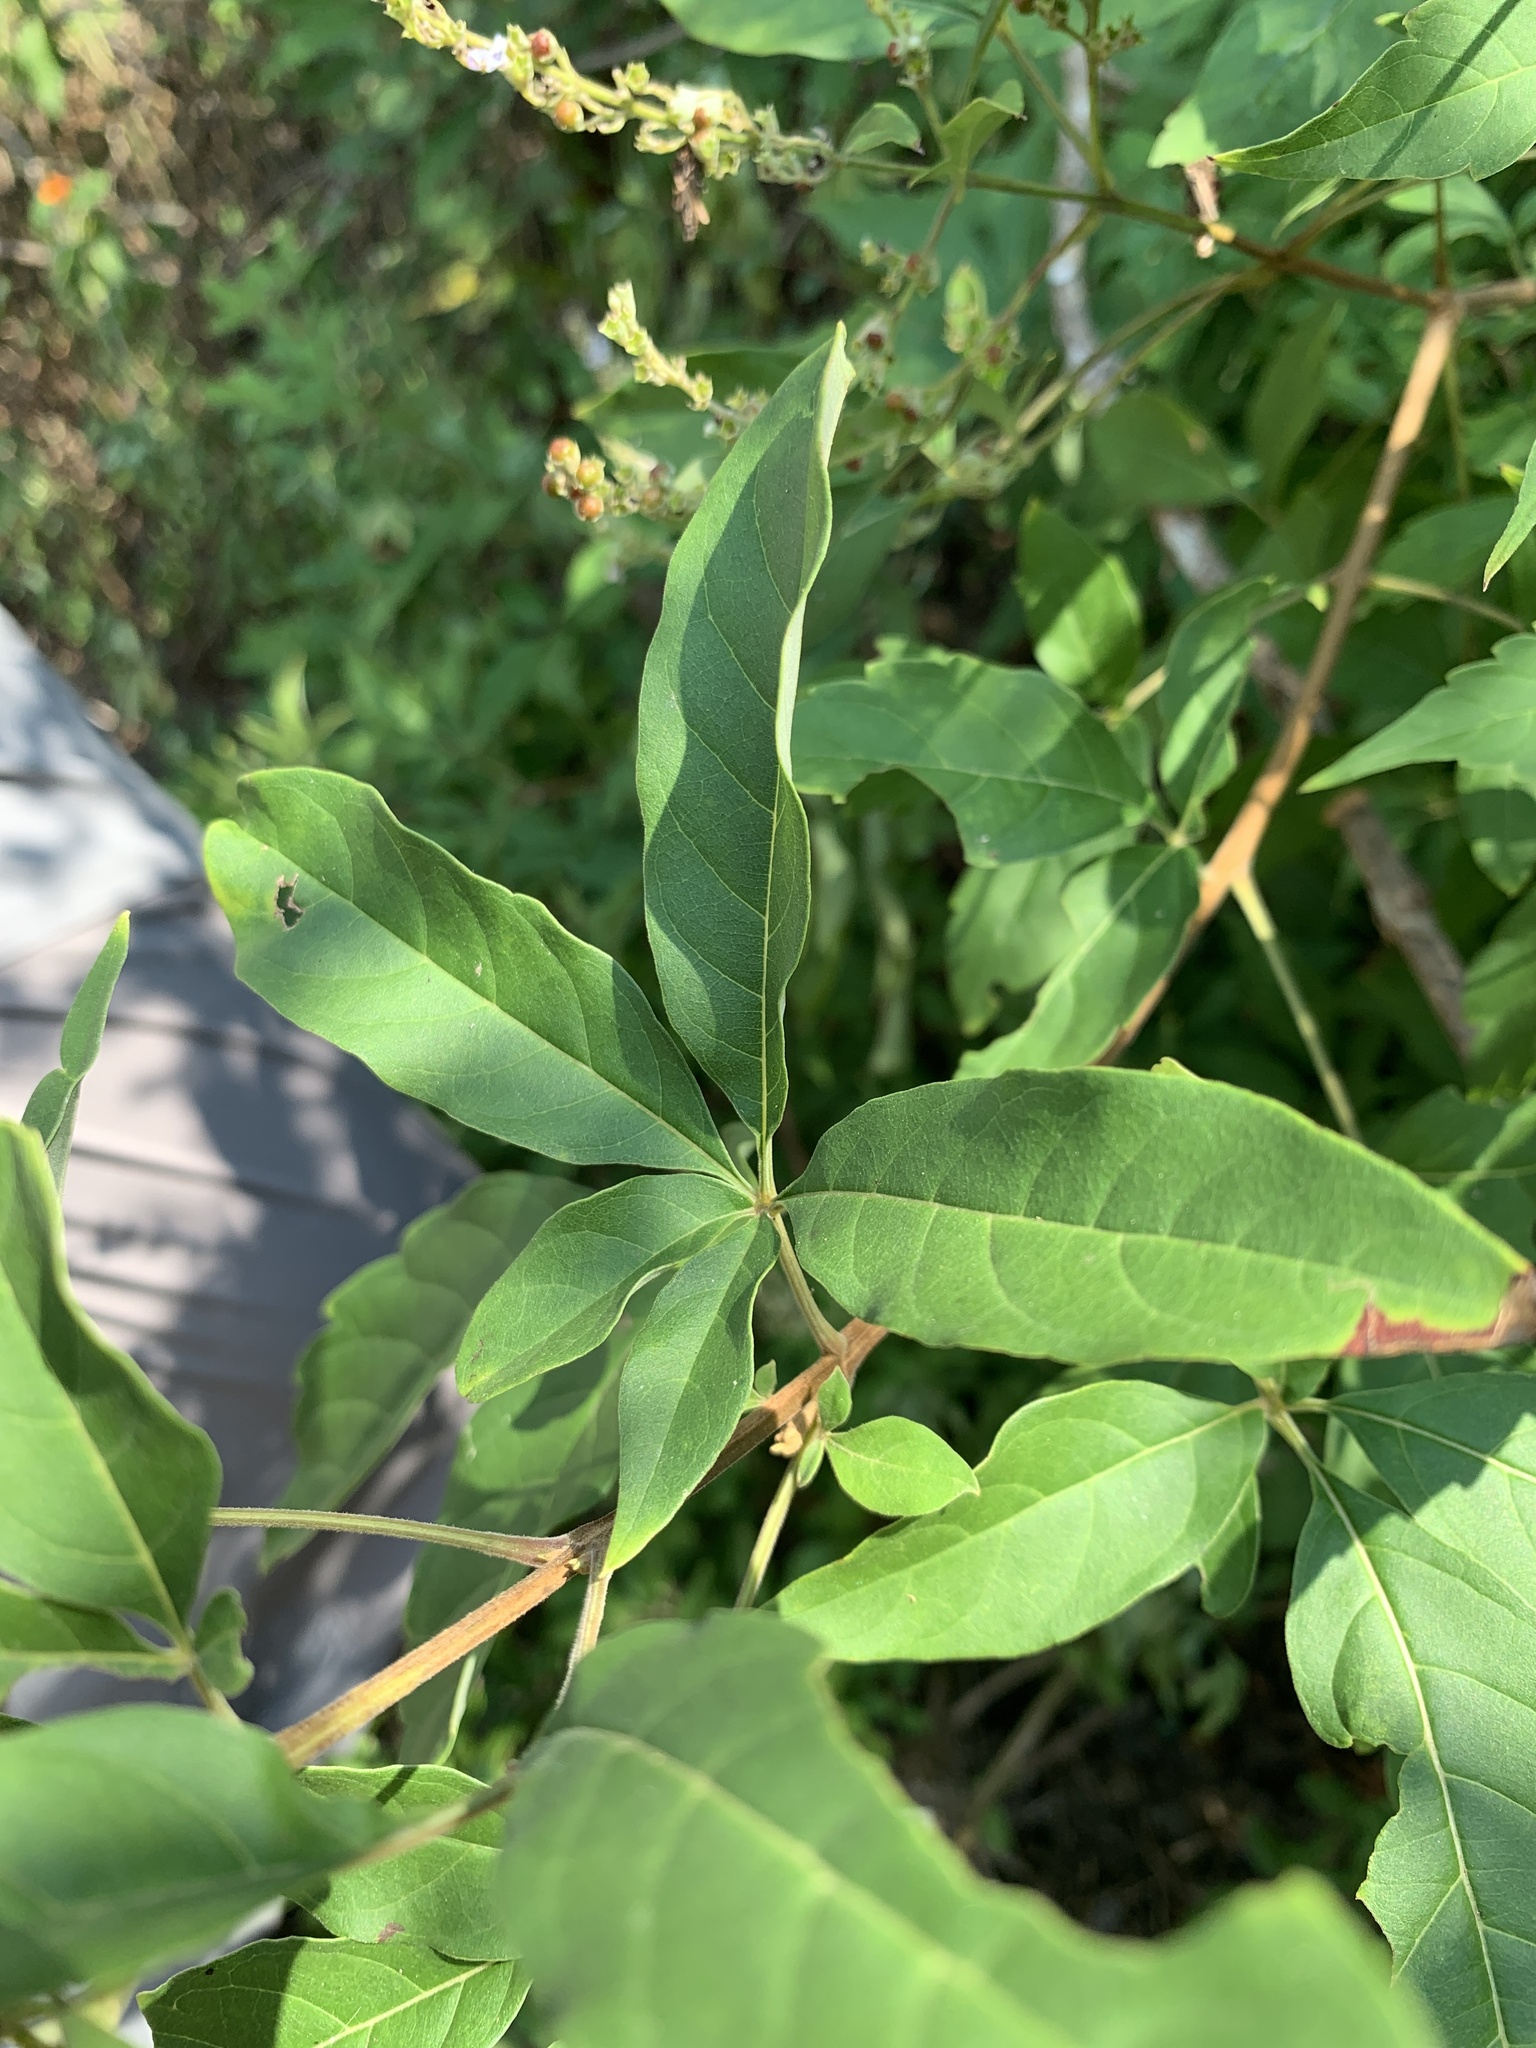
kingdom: Plantae
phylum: Tracheophyta
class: Magnoliopsida
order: Lamiales
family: Lamiaceae
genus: Vitex
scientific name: Vitex negundo
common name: Chinese chastetree
